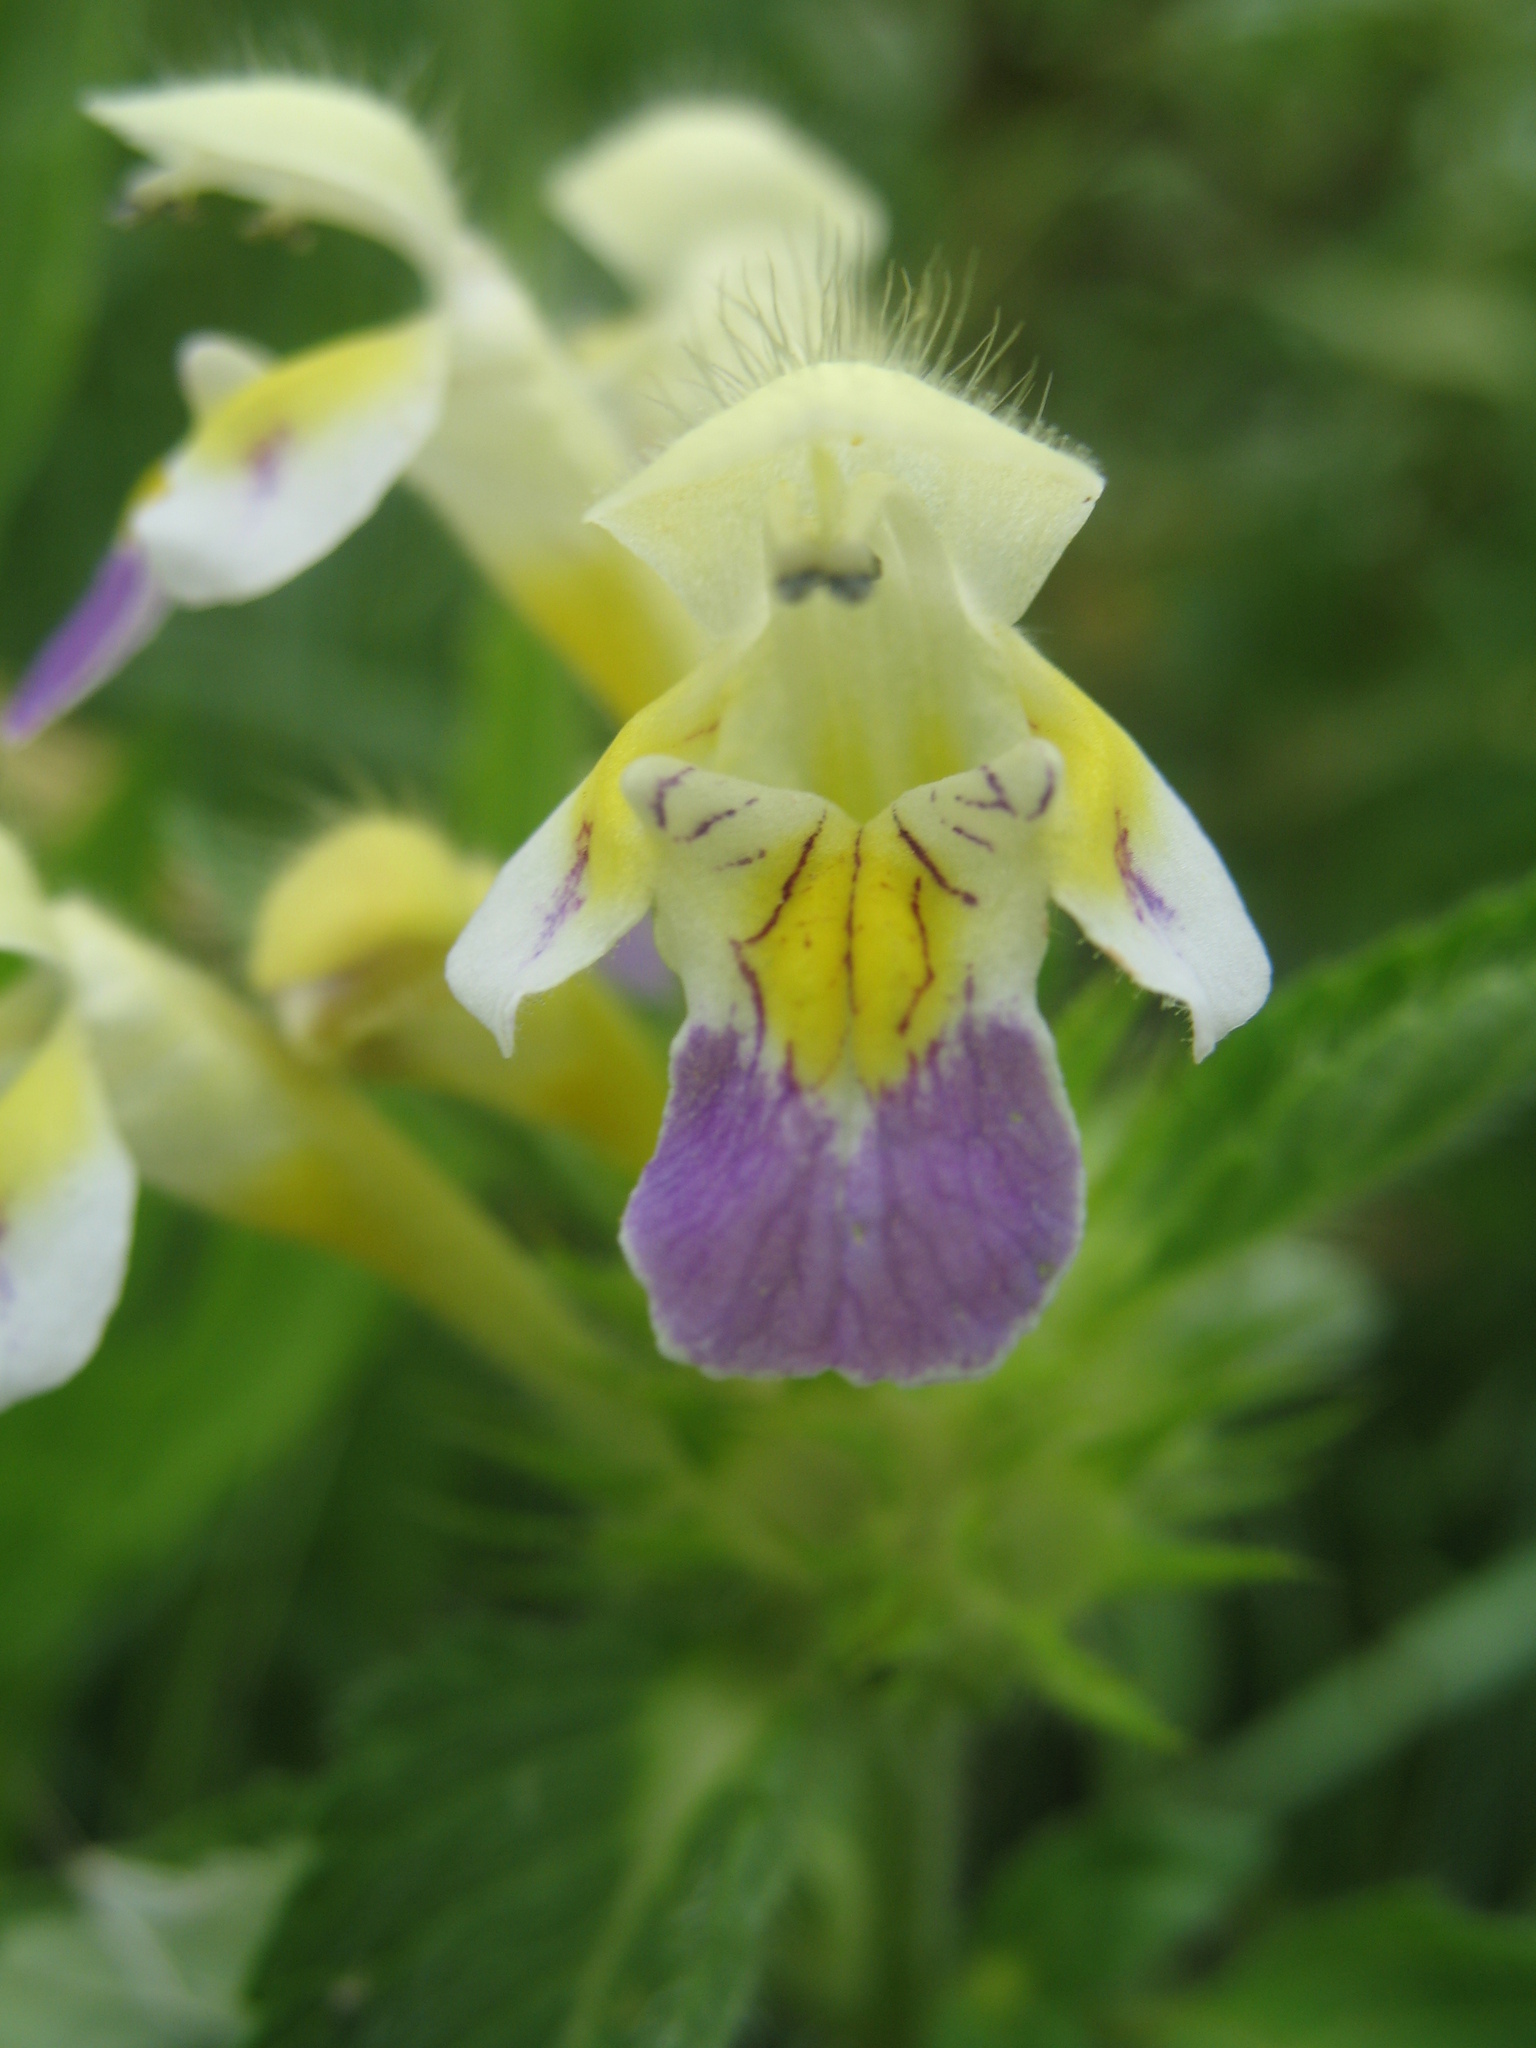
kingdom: Plantae
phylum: Tracheophyta
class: Magnoliopsida
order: Lamiales
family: Lamiaceae
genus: Galeopsis
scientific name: Galeopsis speciosa
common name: Large-flowered hemp-nettle
